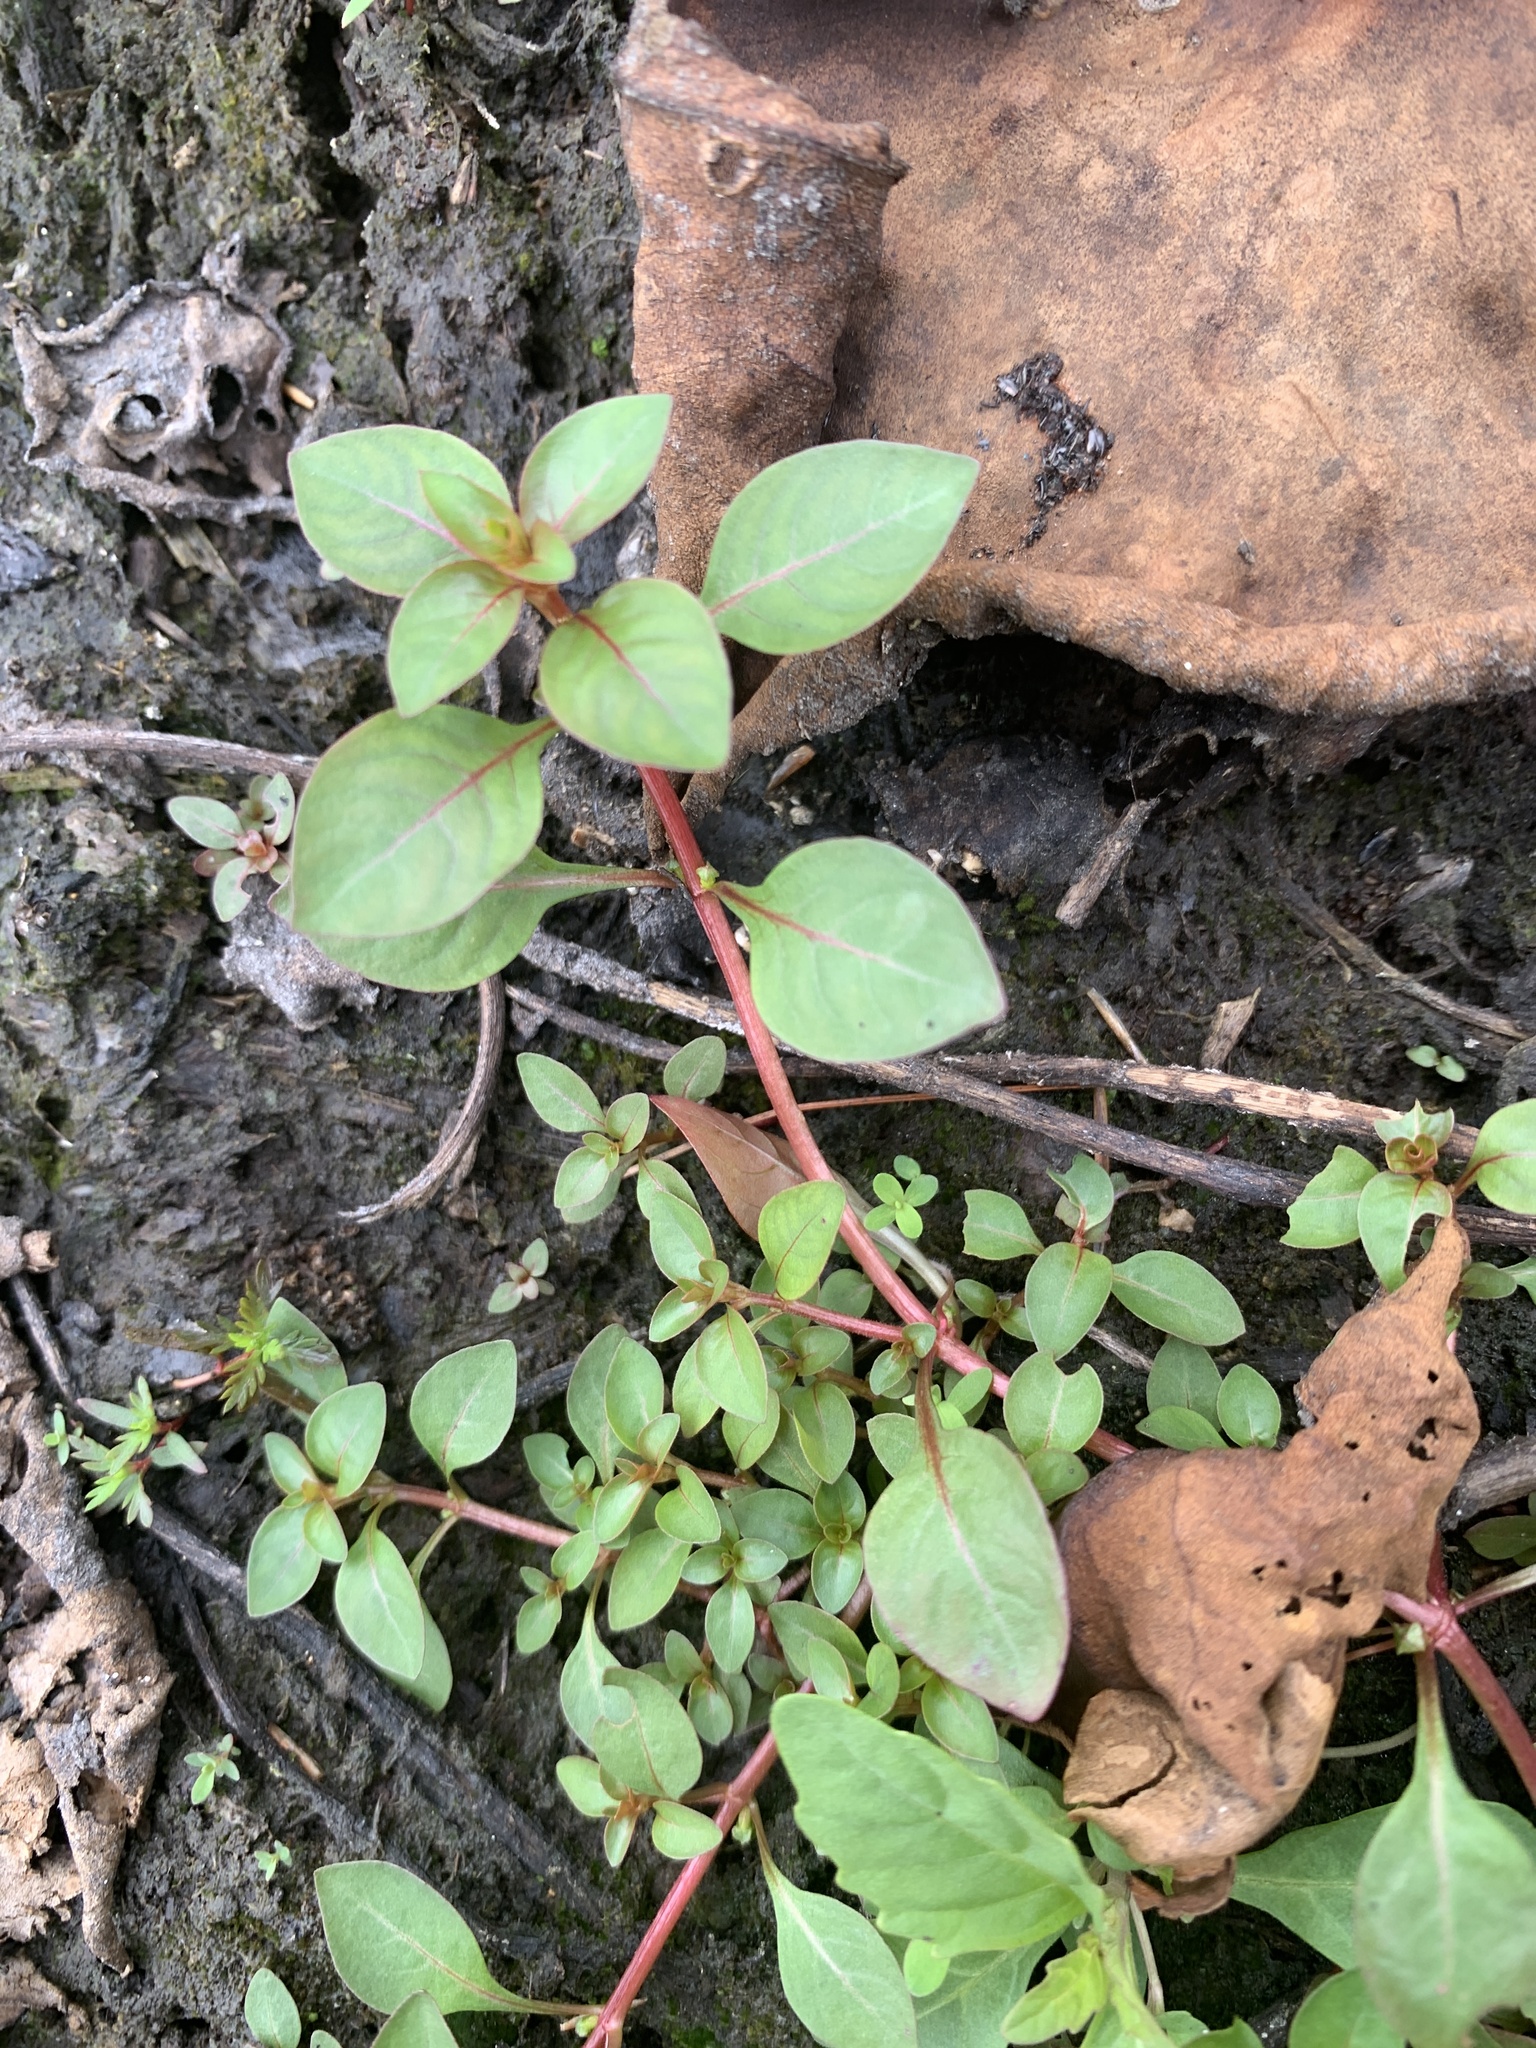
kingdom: Plantae
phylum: Tracheophyta
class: Magnoliopsida
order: Myrtales
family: Onagraceae
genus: Ludwigia
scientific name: Ludwigia palustris
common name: Hampshire-purslane
